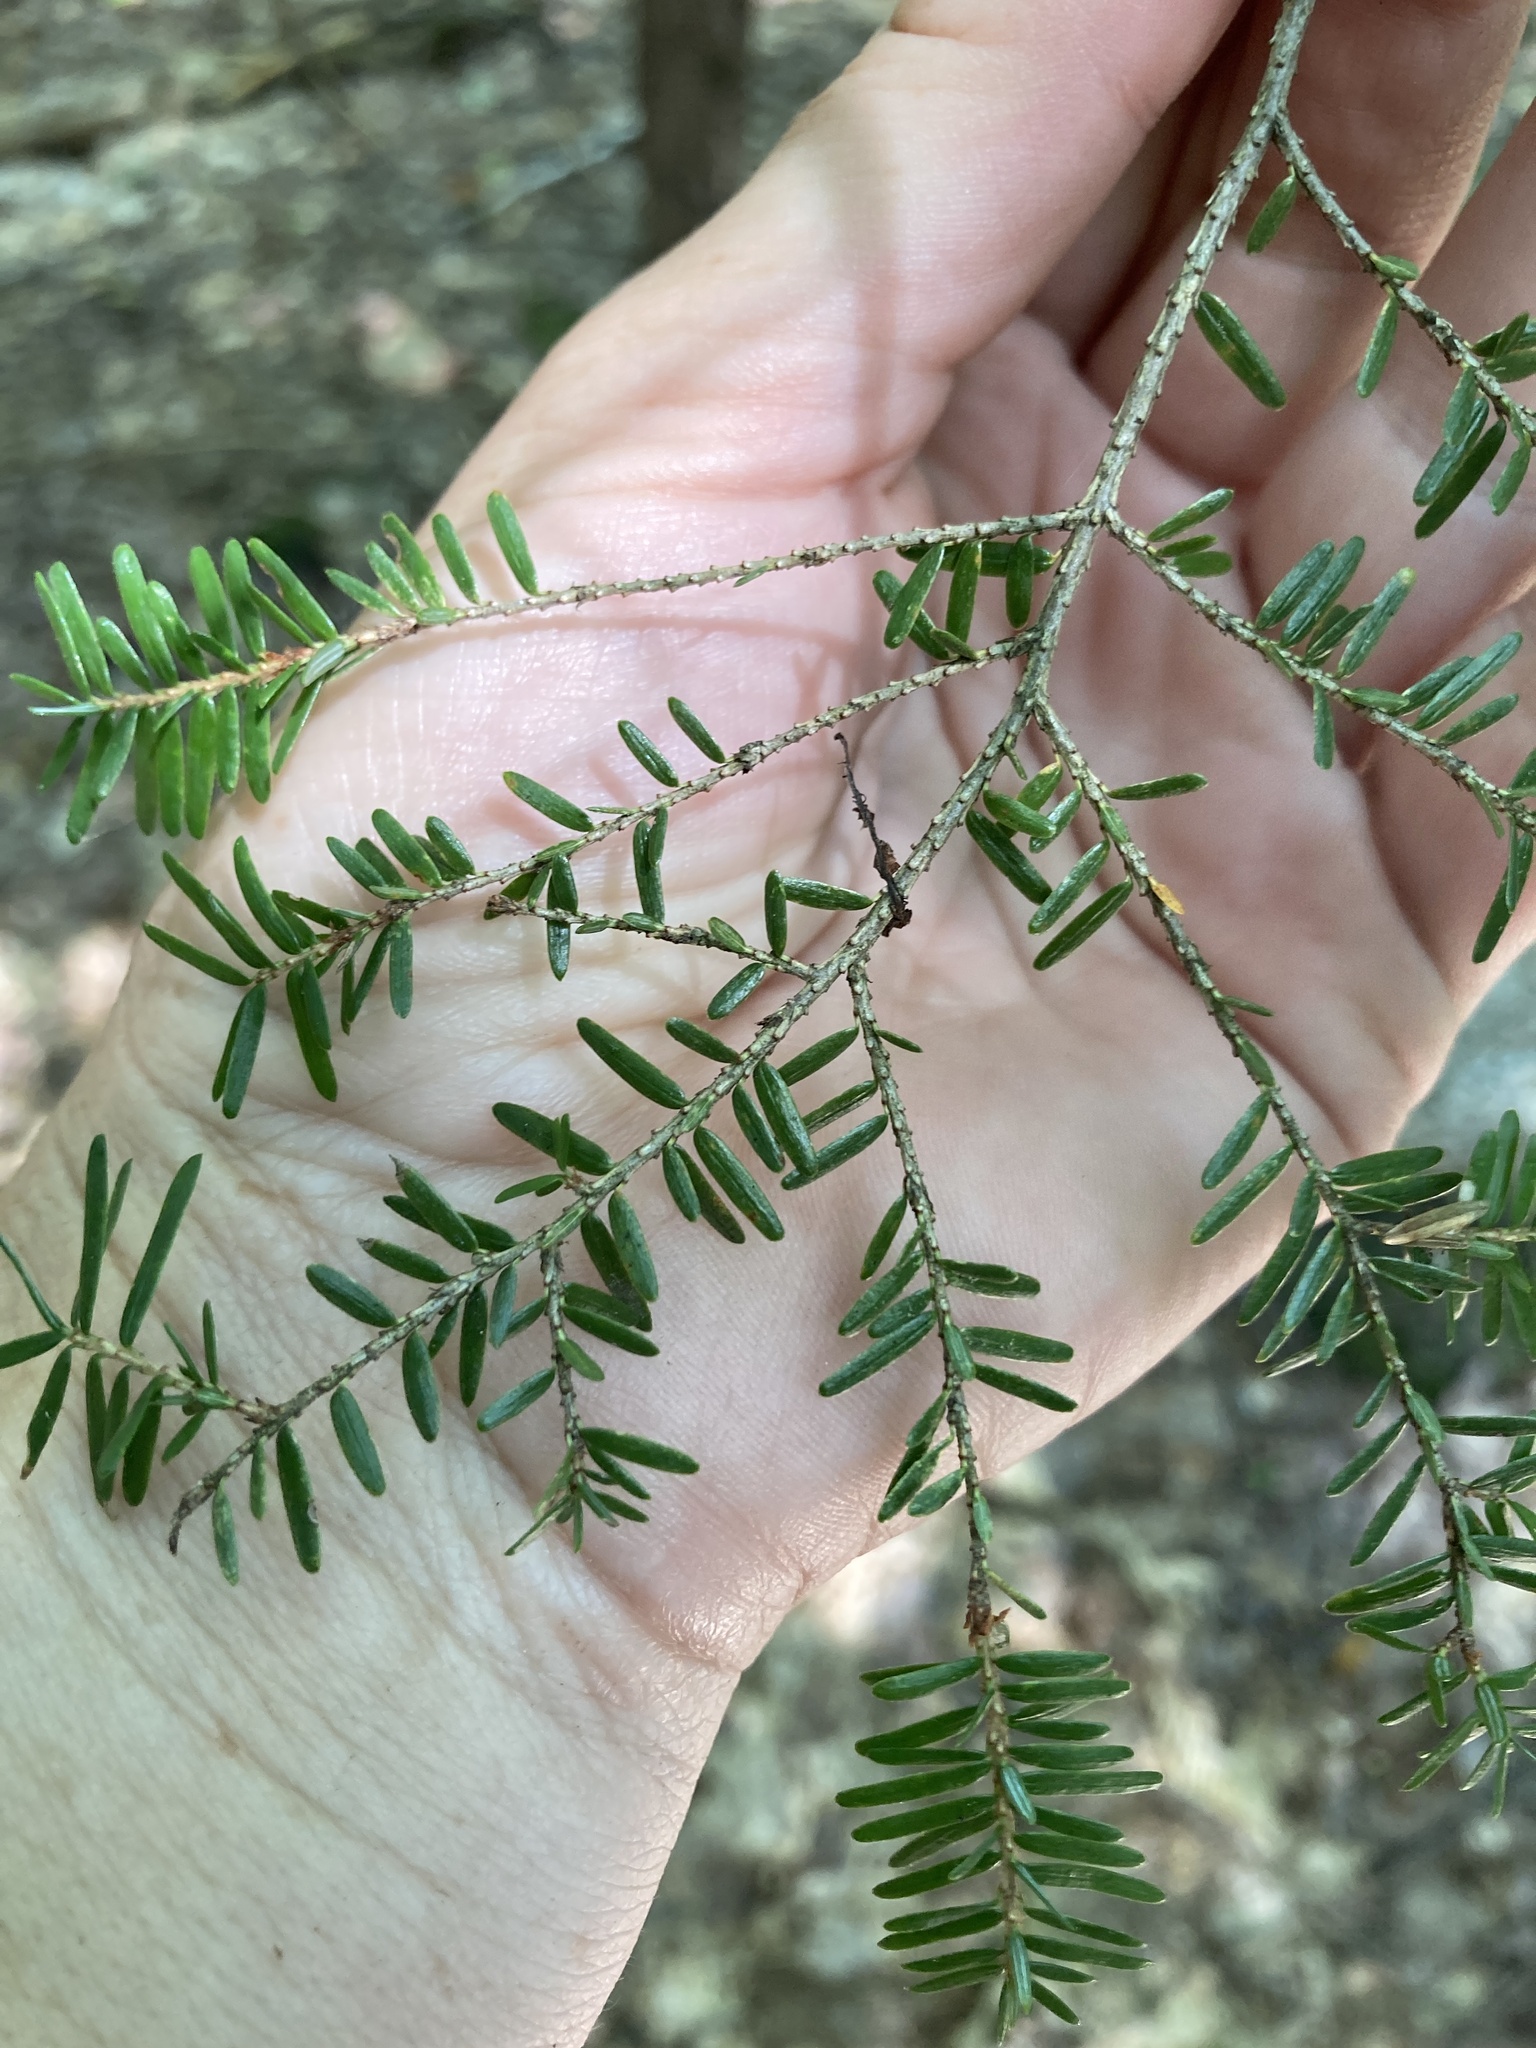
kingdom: Plantae
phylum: Tracheophyta
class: Pinopsida
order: Pinales
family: Pinaceae
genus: Tsuga
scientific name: Tsuga canadensis
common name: Eastern hemlock
